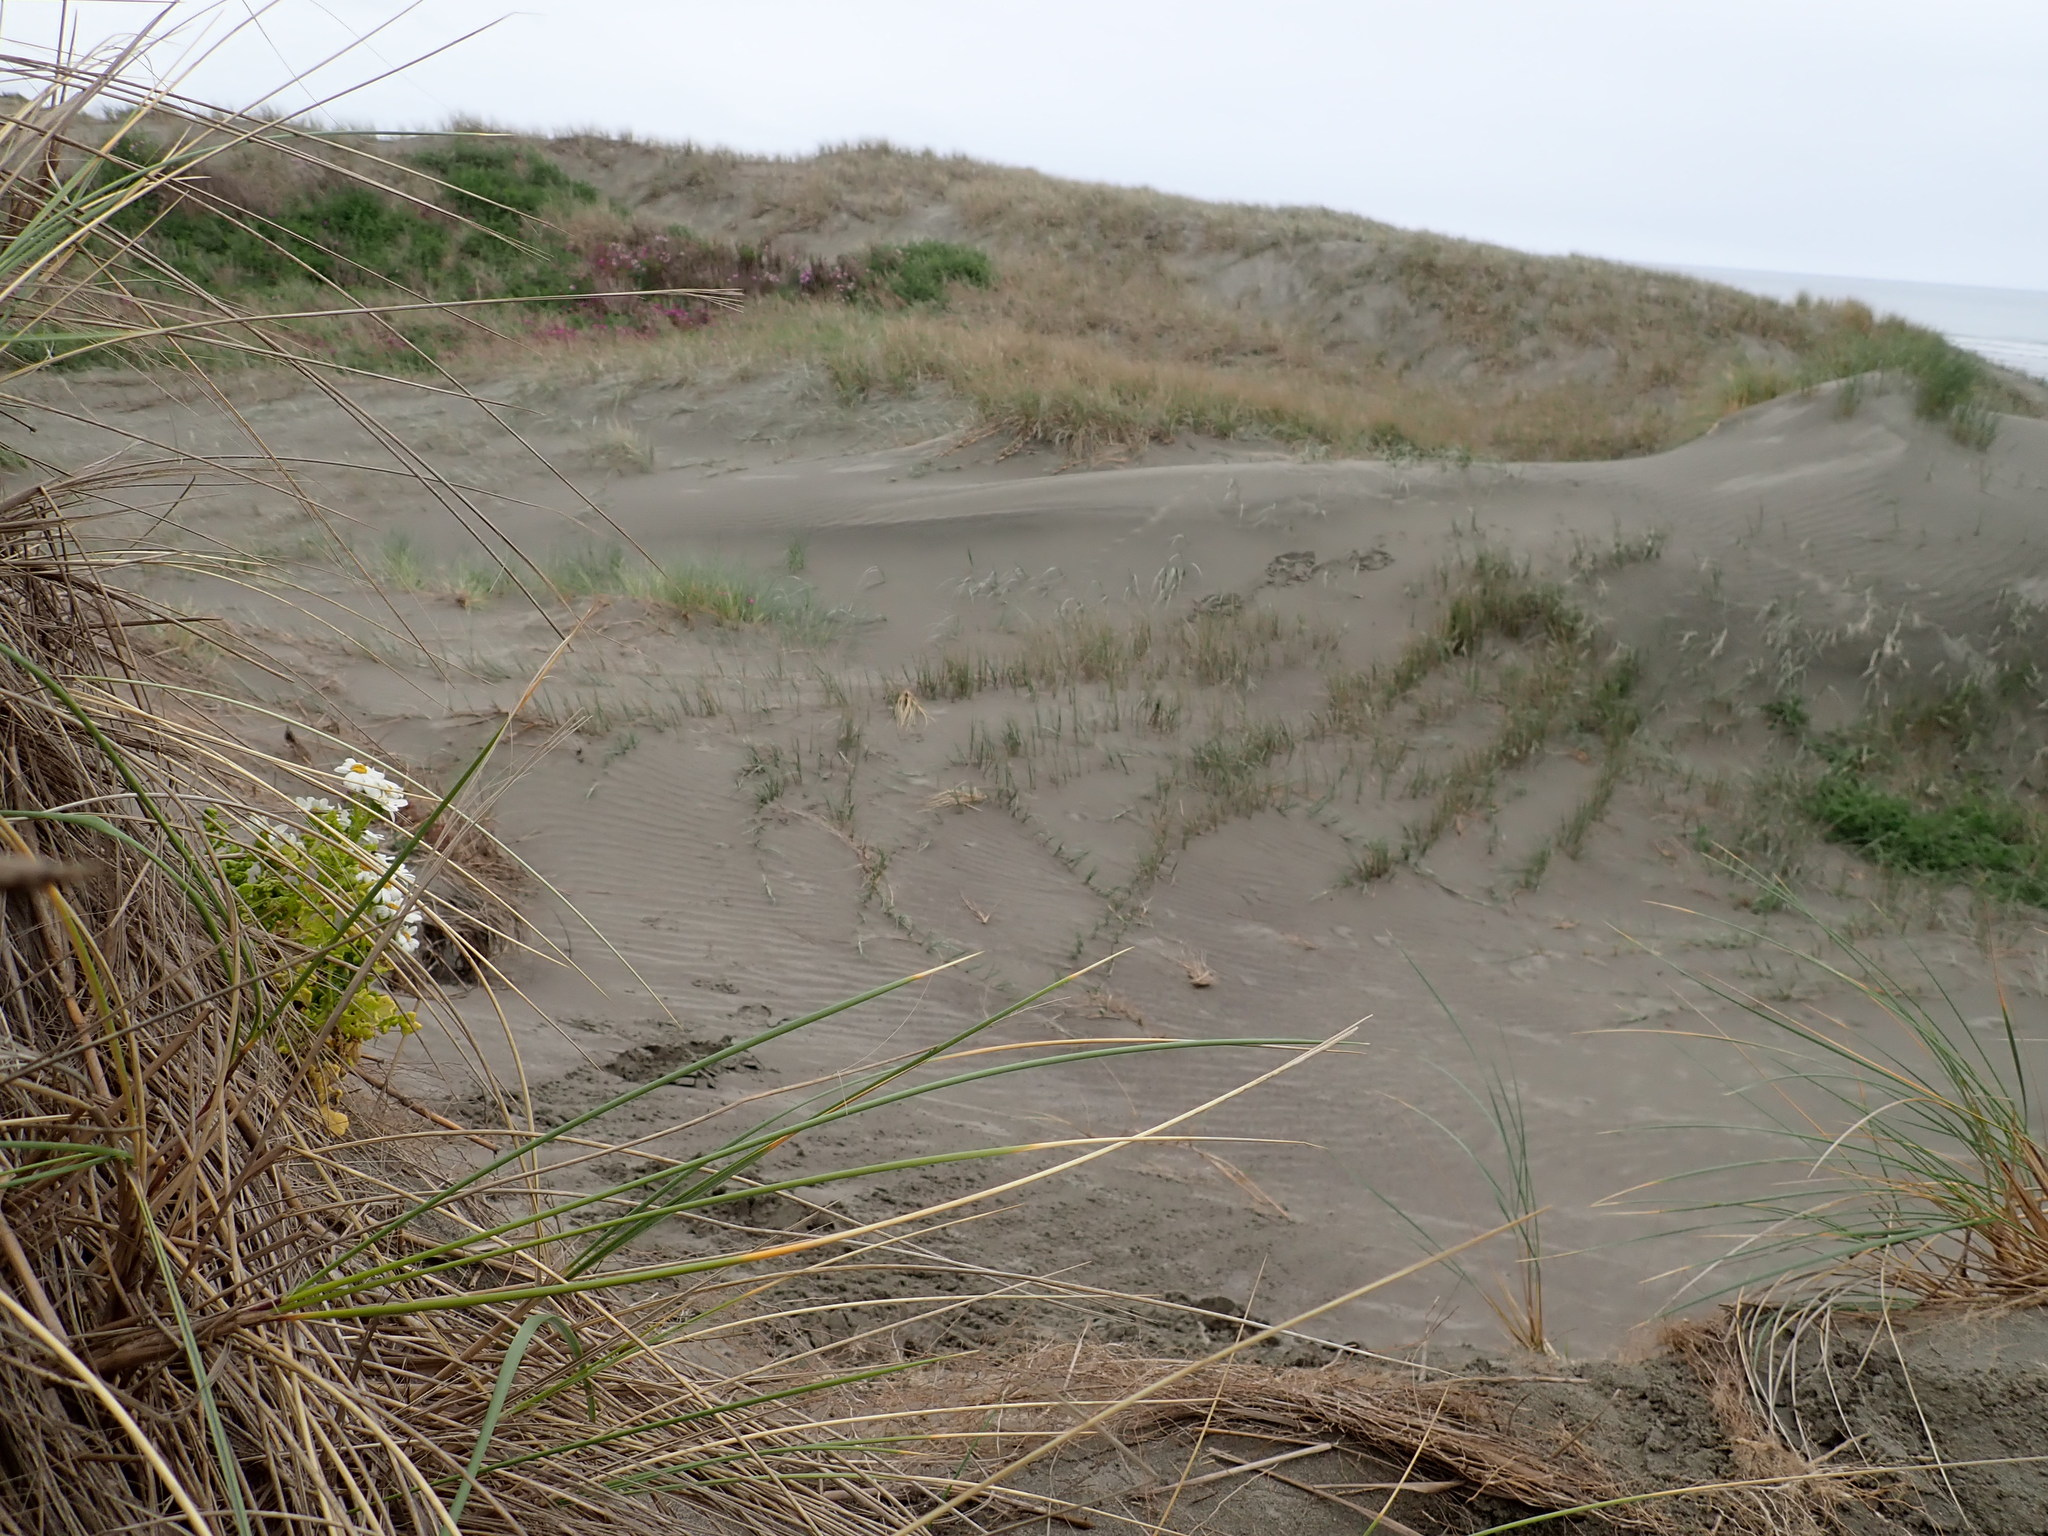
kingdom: Plantae
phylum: Tracheophyta
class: Magnoliopsida
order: Asterales
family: Asteraceae
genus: Senecio
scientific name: Senecio elegans
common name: Purple groundsel
